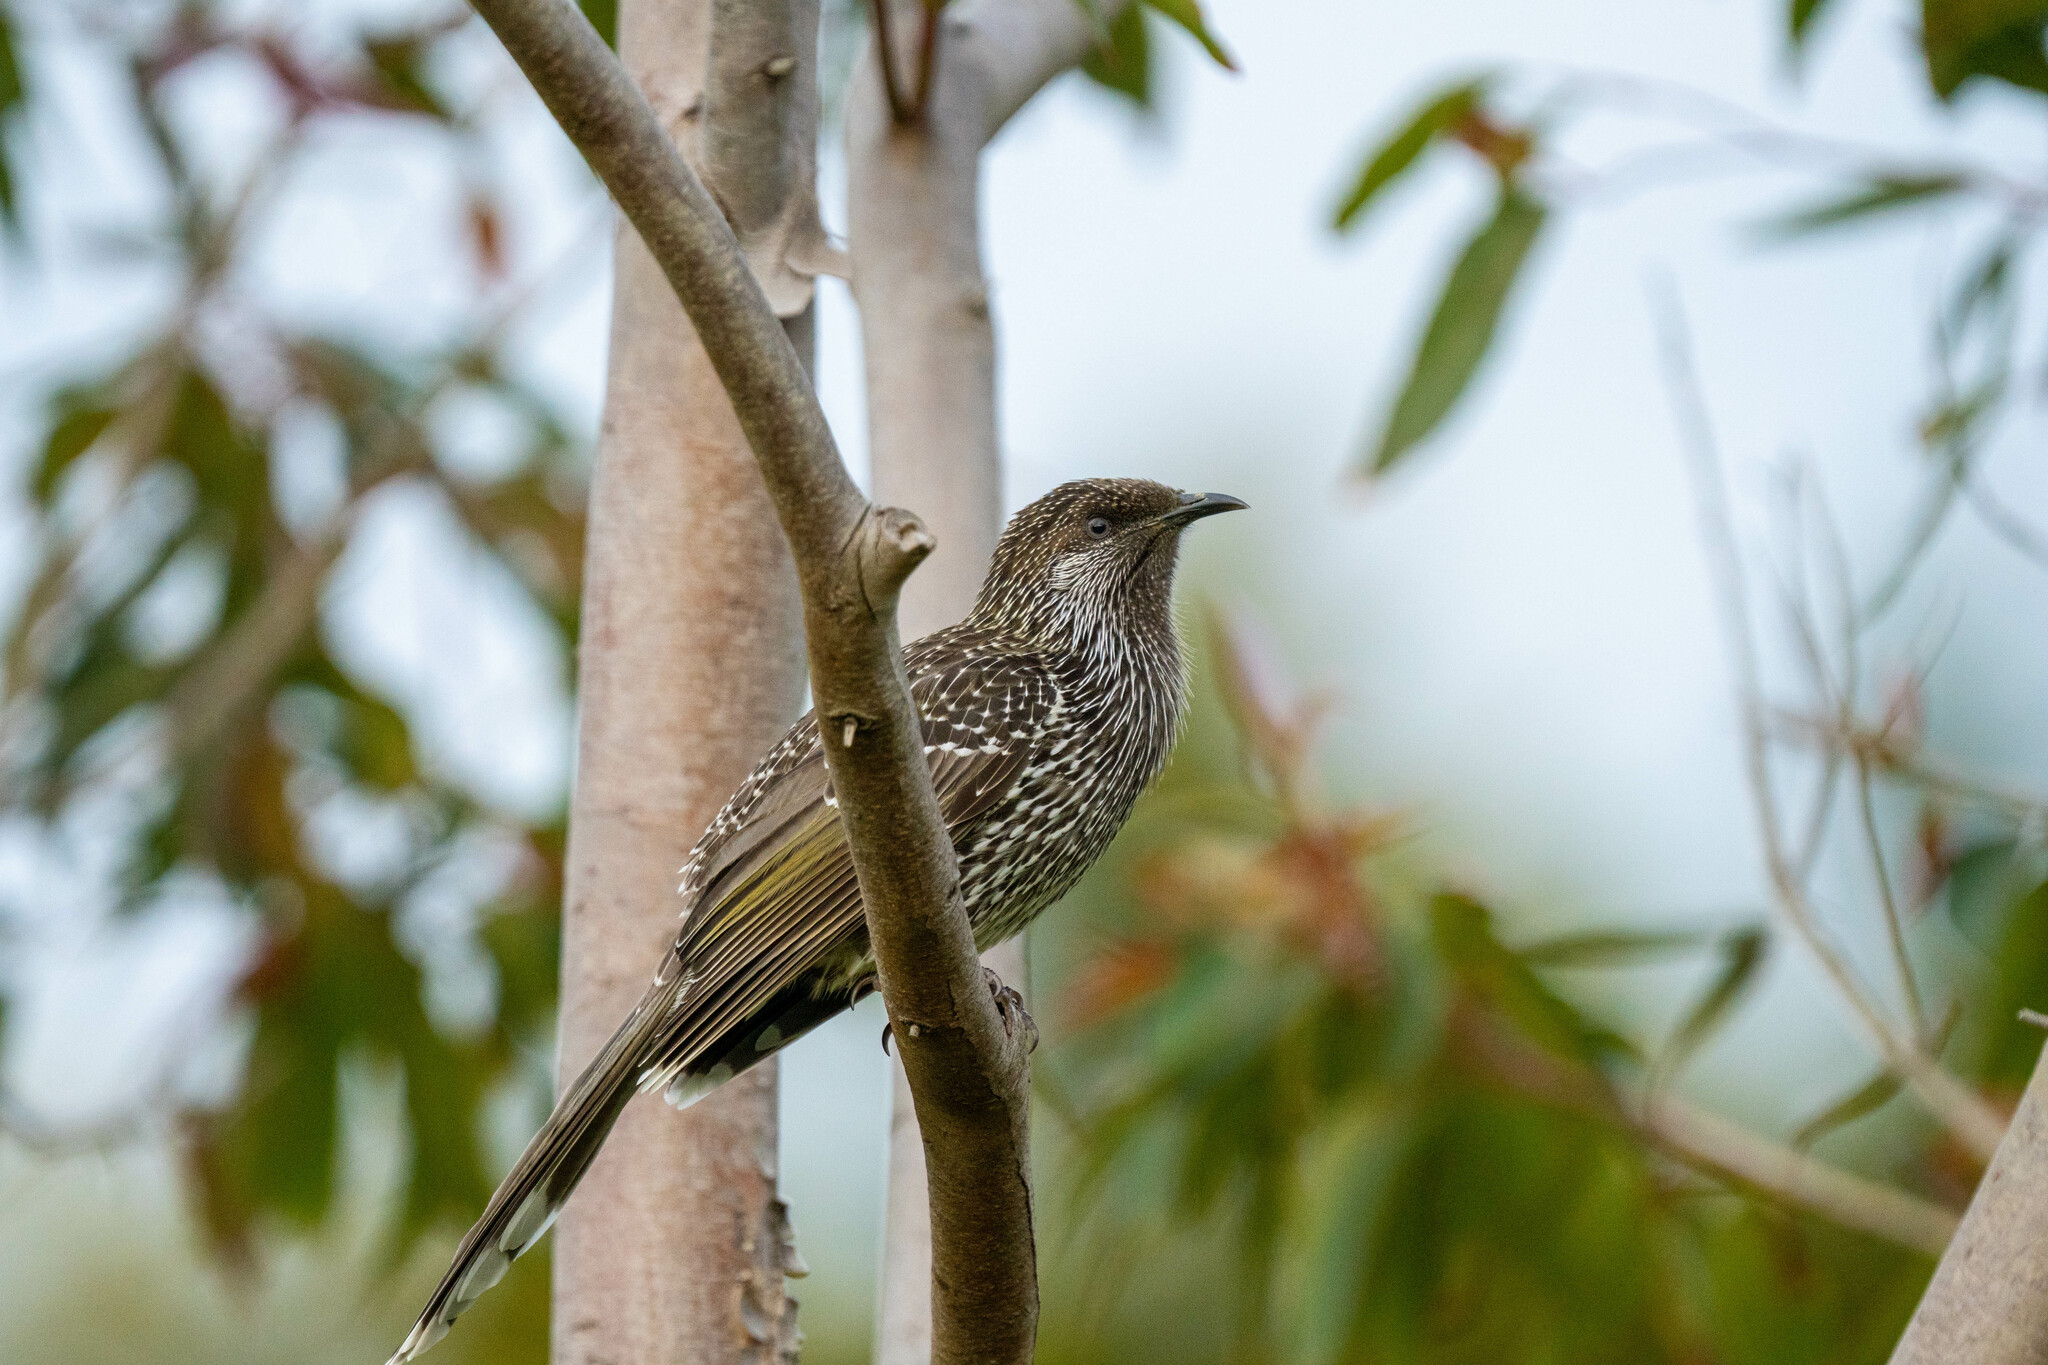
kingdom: Animalia
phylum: Chordata
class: Aves
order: Passeriformes
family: Meliphagidae
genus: Anthochaera
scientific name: Anthochaera chrysoptera
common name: Little wattlebird
